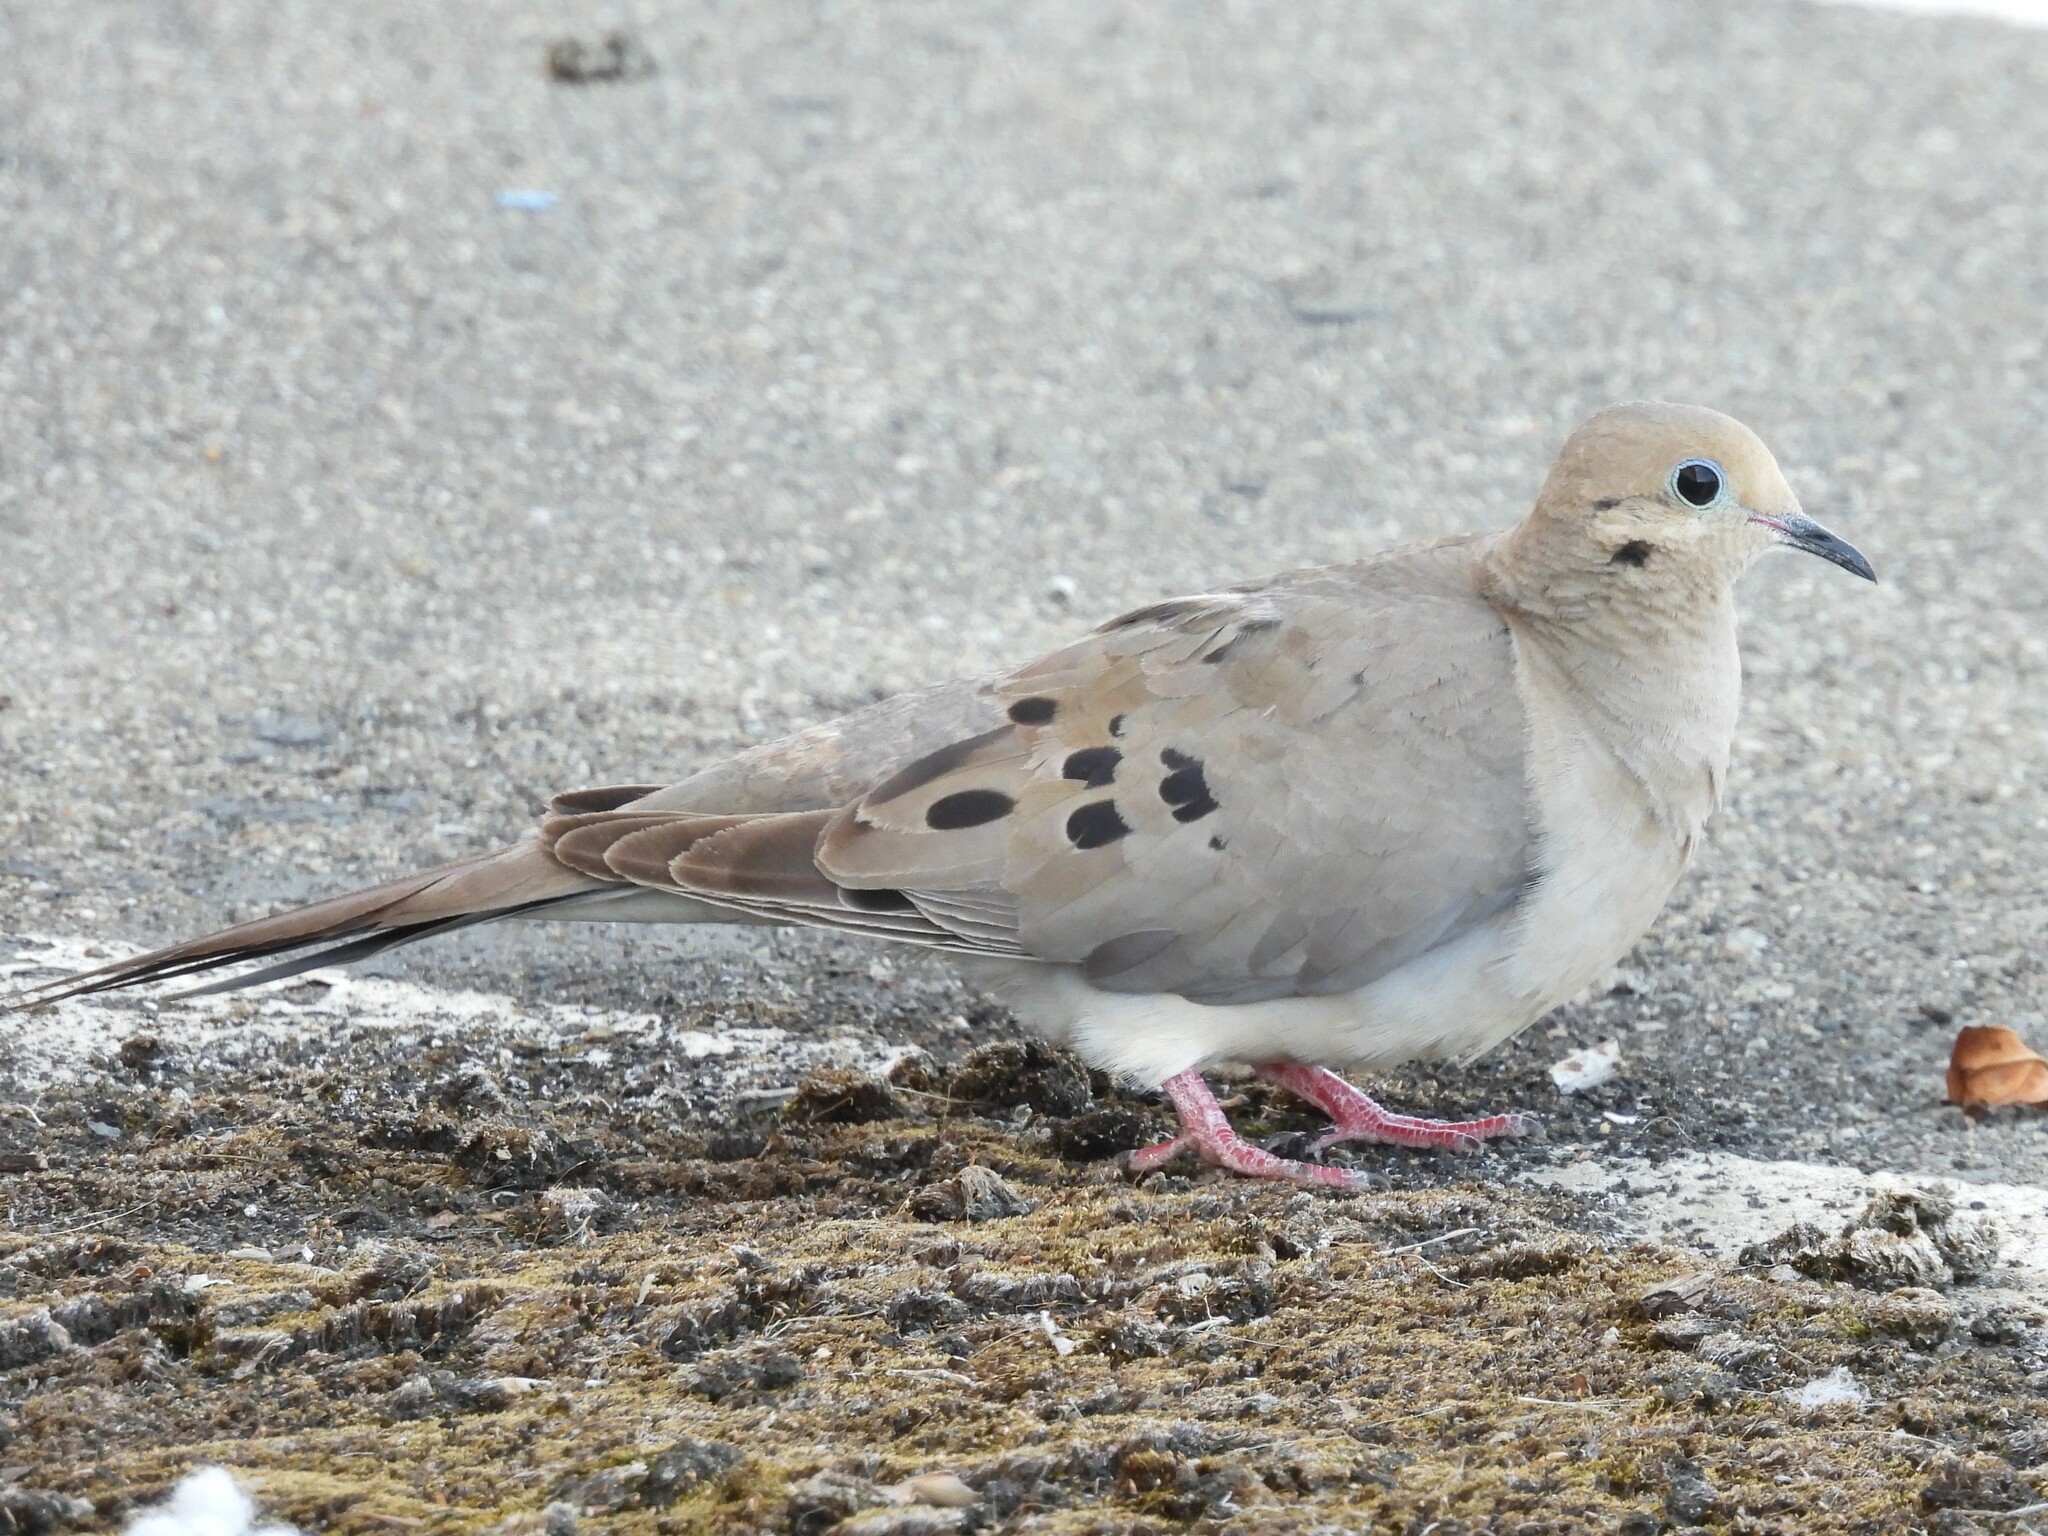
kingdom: Animalia
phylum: Chordata
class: Aves
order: Columbiformes
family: Columbidae
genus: Zenaida
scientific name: Zenaida macroura
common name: Mourning dove
